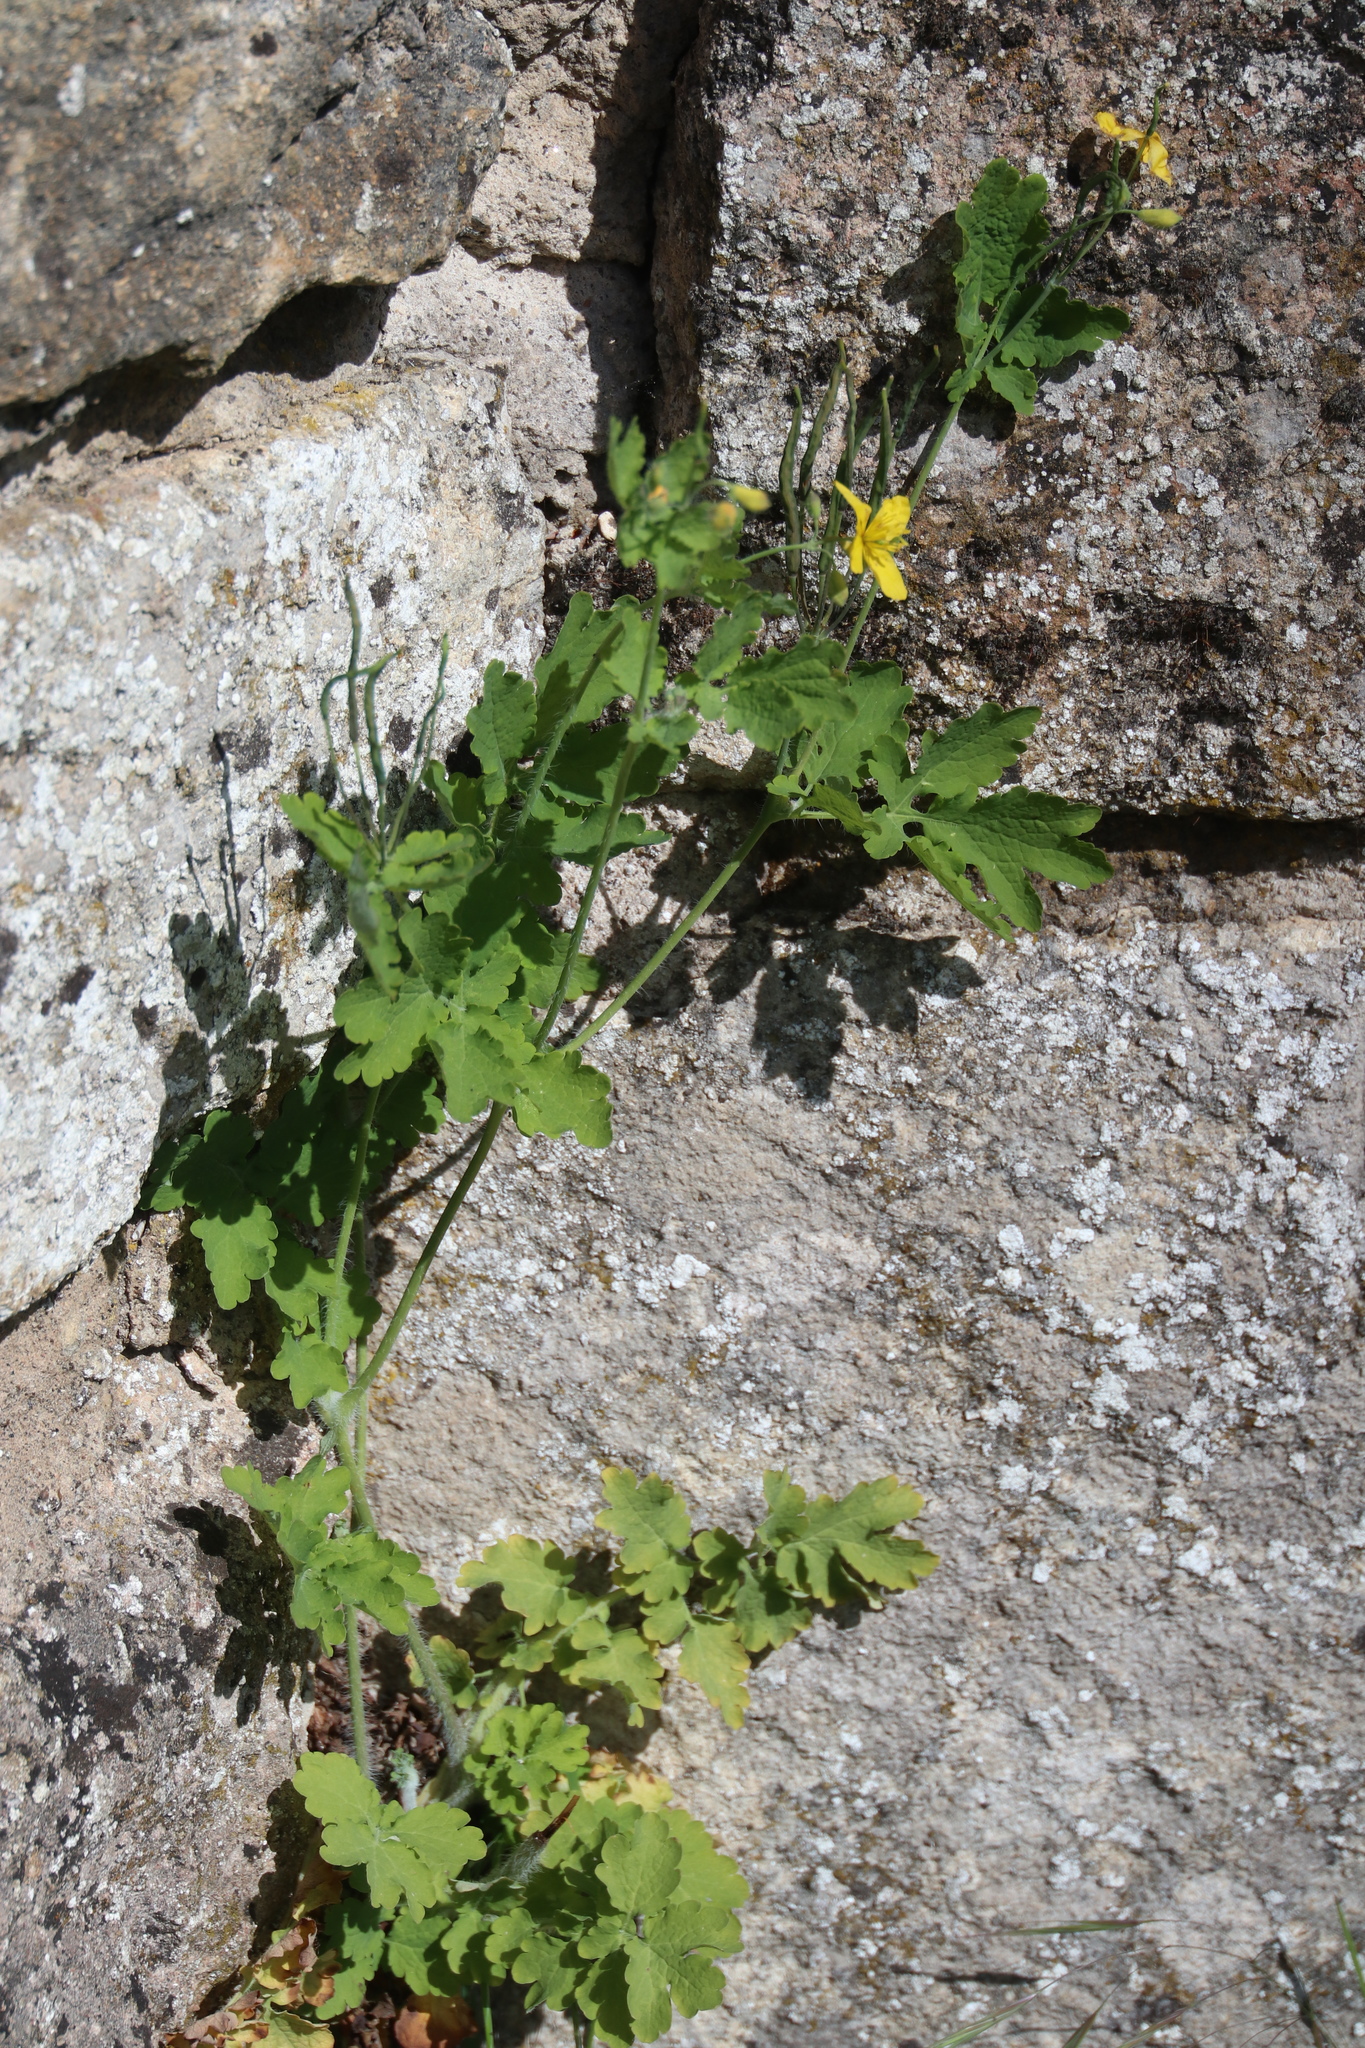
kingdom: Plantae
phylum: Tracheophyta
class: Magnoliopsida
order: Ranunculales
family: Papaveraceae
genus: Chelidonium
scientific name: Chelidonium majus
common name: Greater celandine
